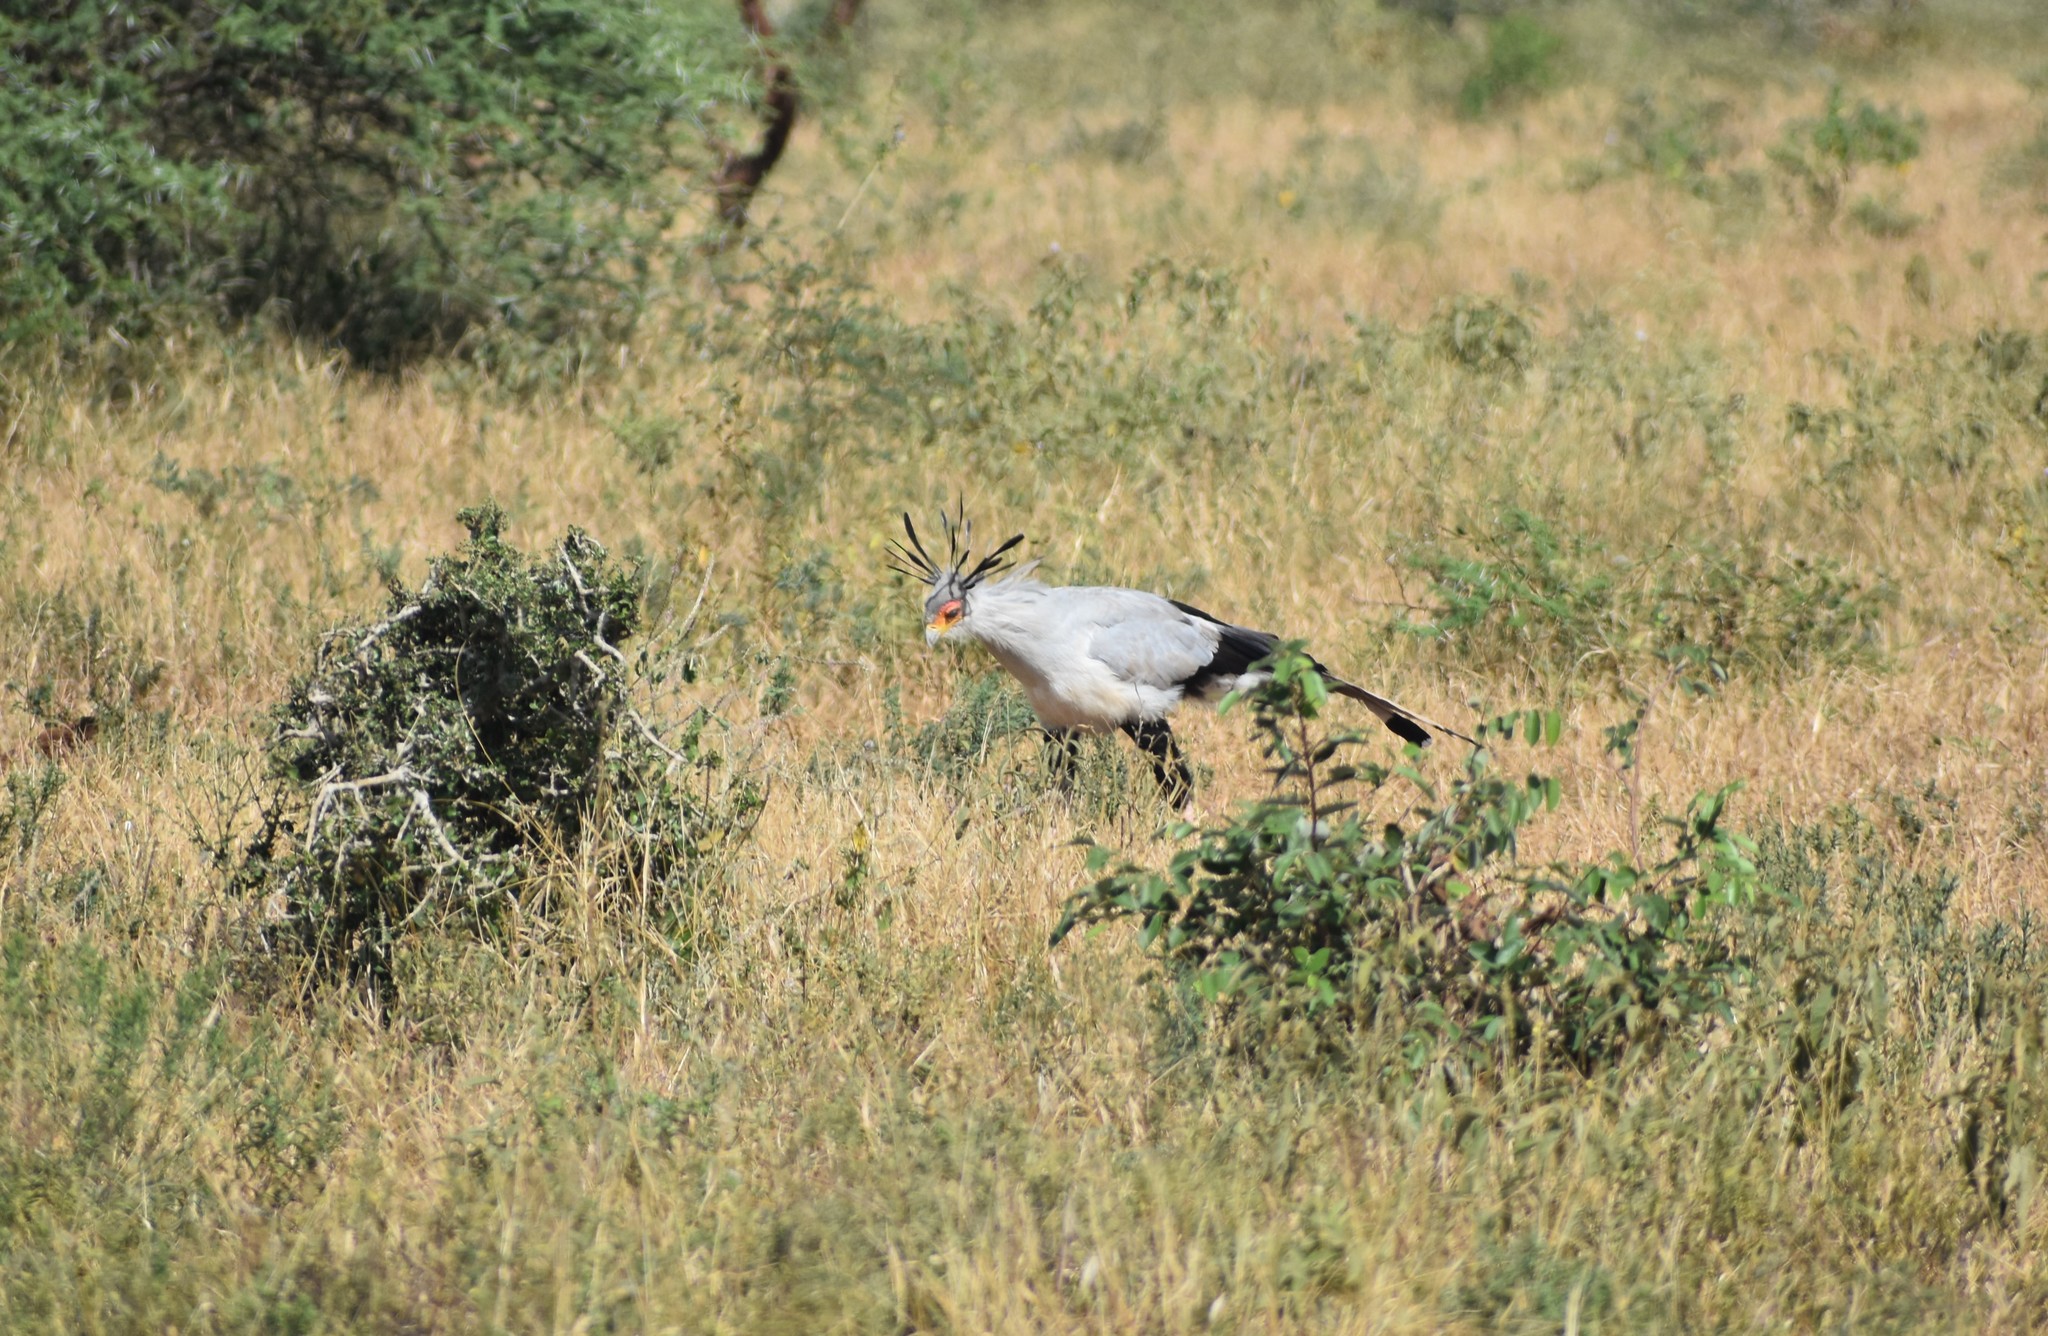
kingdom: Animalia
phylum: Chordata
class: Aves
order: Accipitriformes
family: Sagittariidae
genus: Sagittarius
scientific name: Sagittarius serpentarius
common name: Secretarybird
